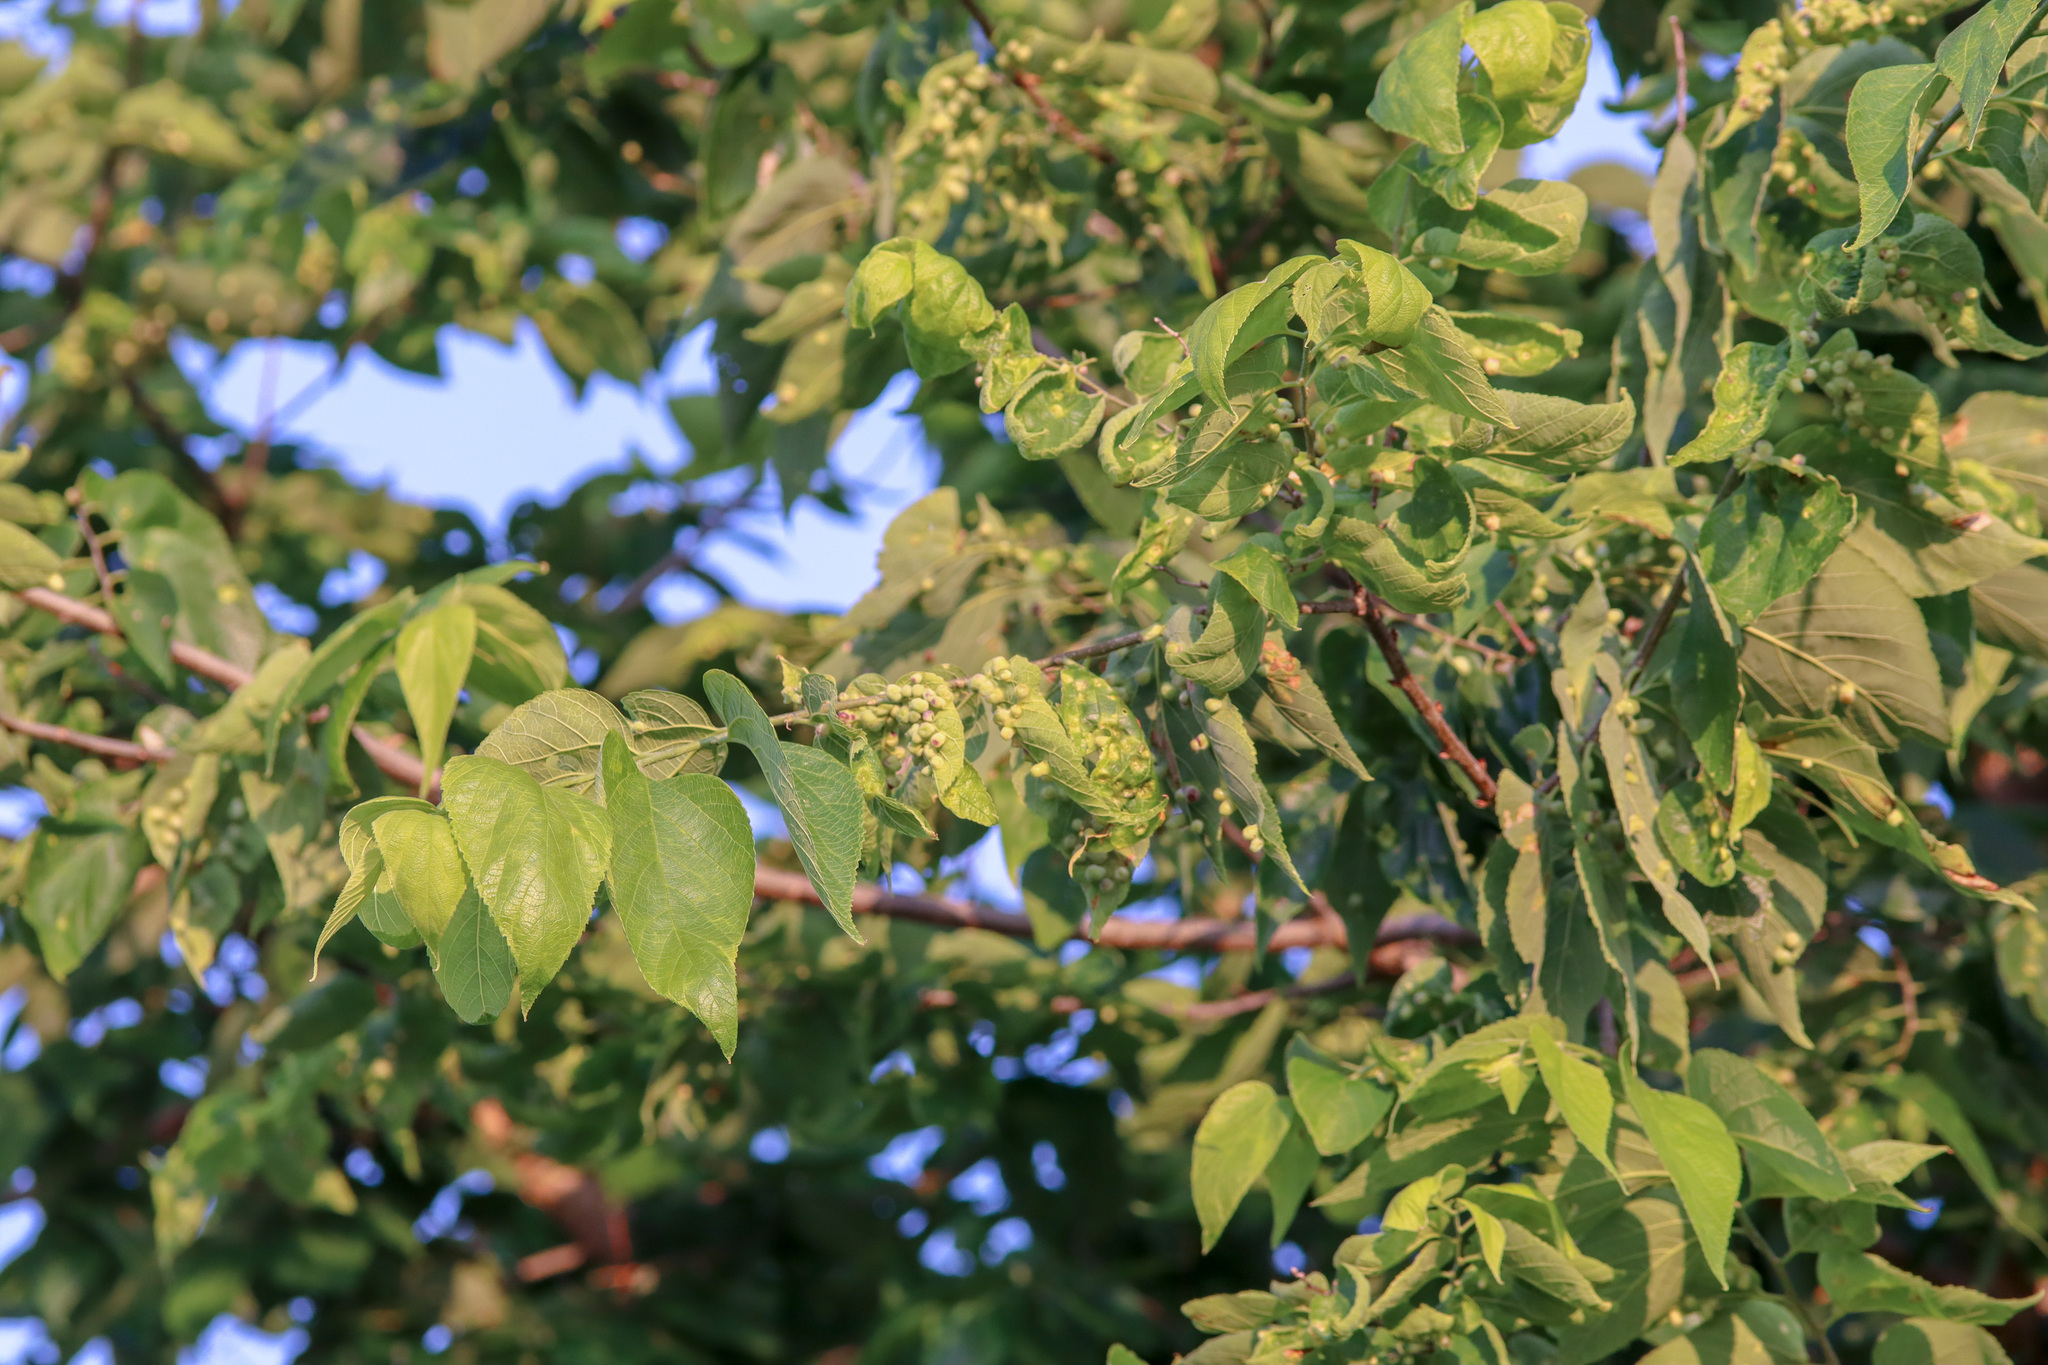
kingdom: Animalia
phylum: Arthropoda
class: Insecta
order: Hemiptera
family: Aphalaridae
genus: Pachypsylla
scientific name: Pachypsylla celtidismamma
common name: Hackberry nipplegall psyllid
